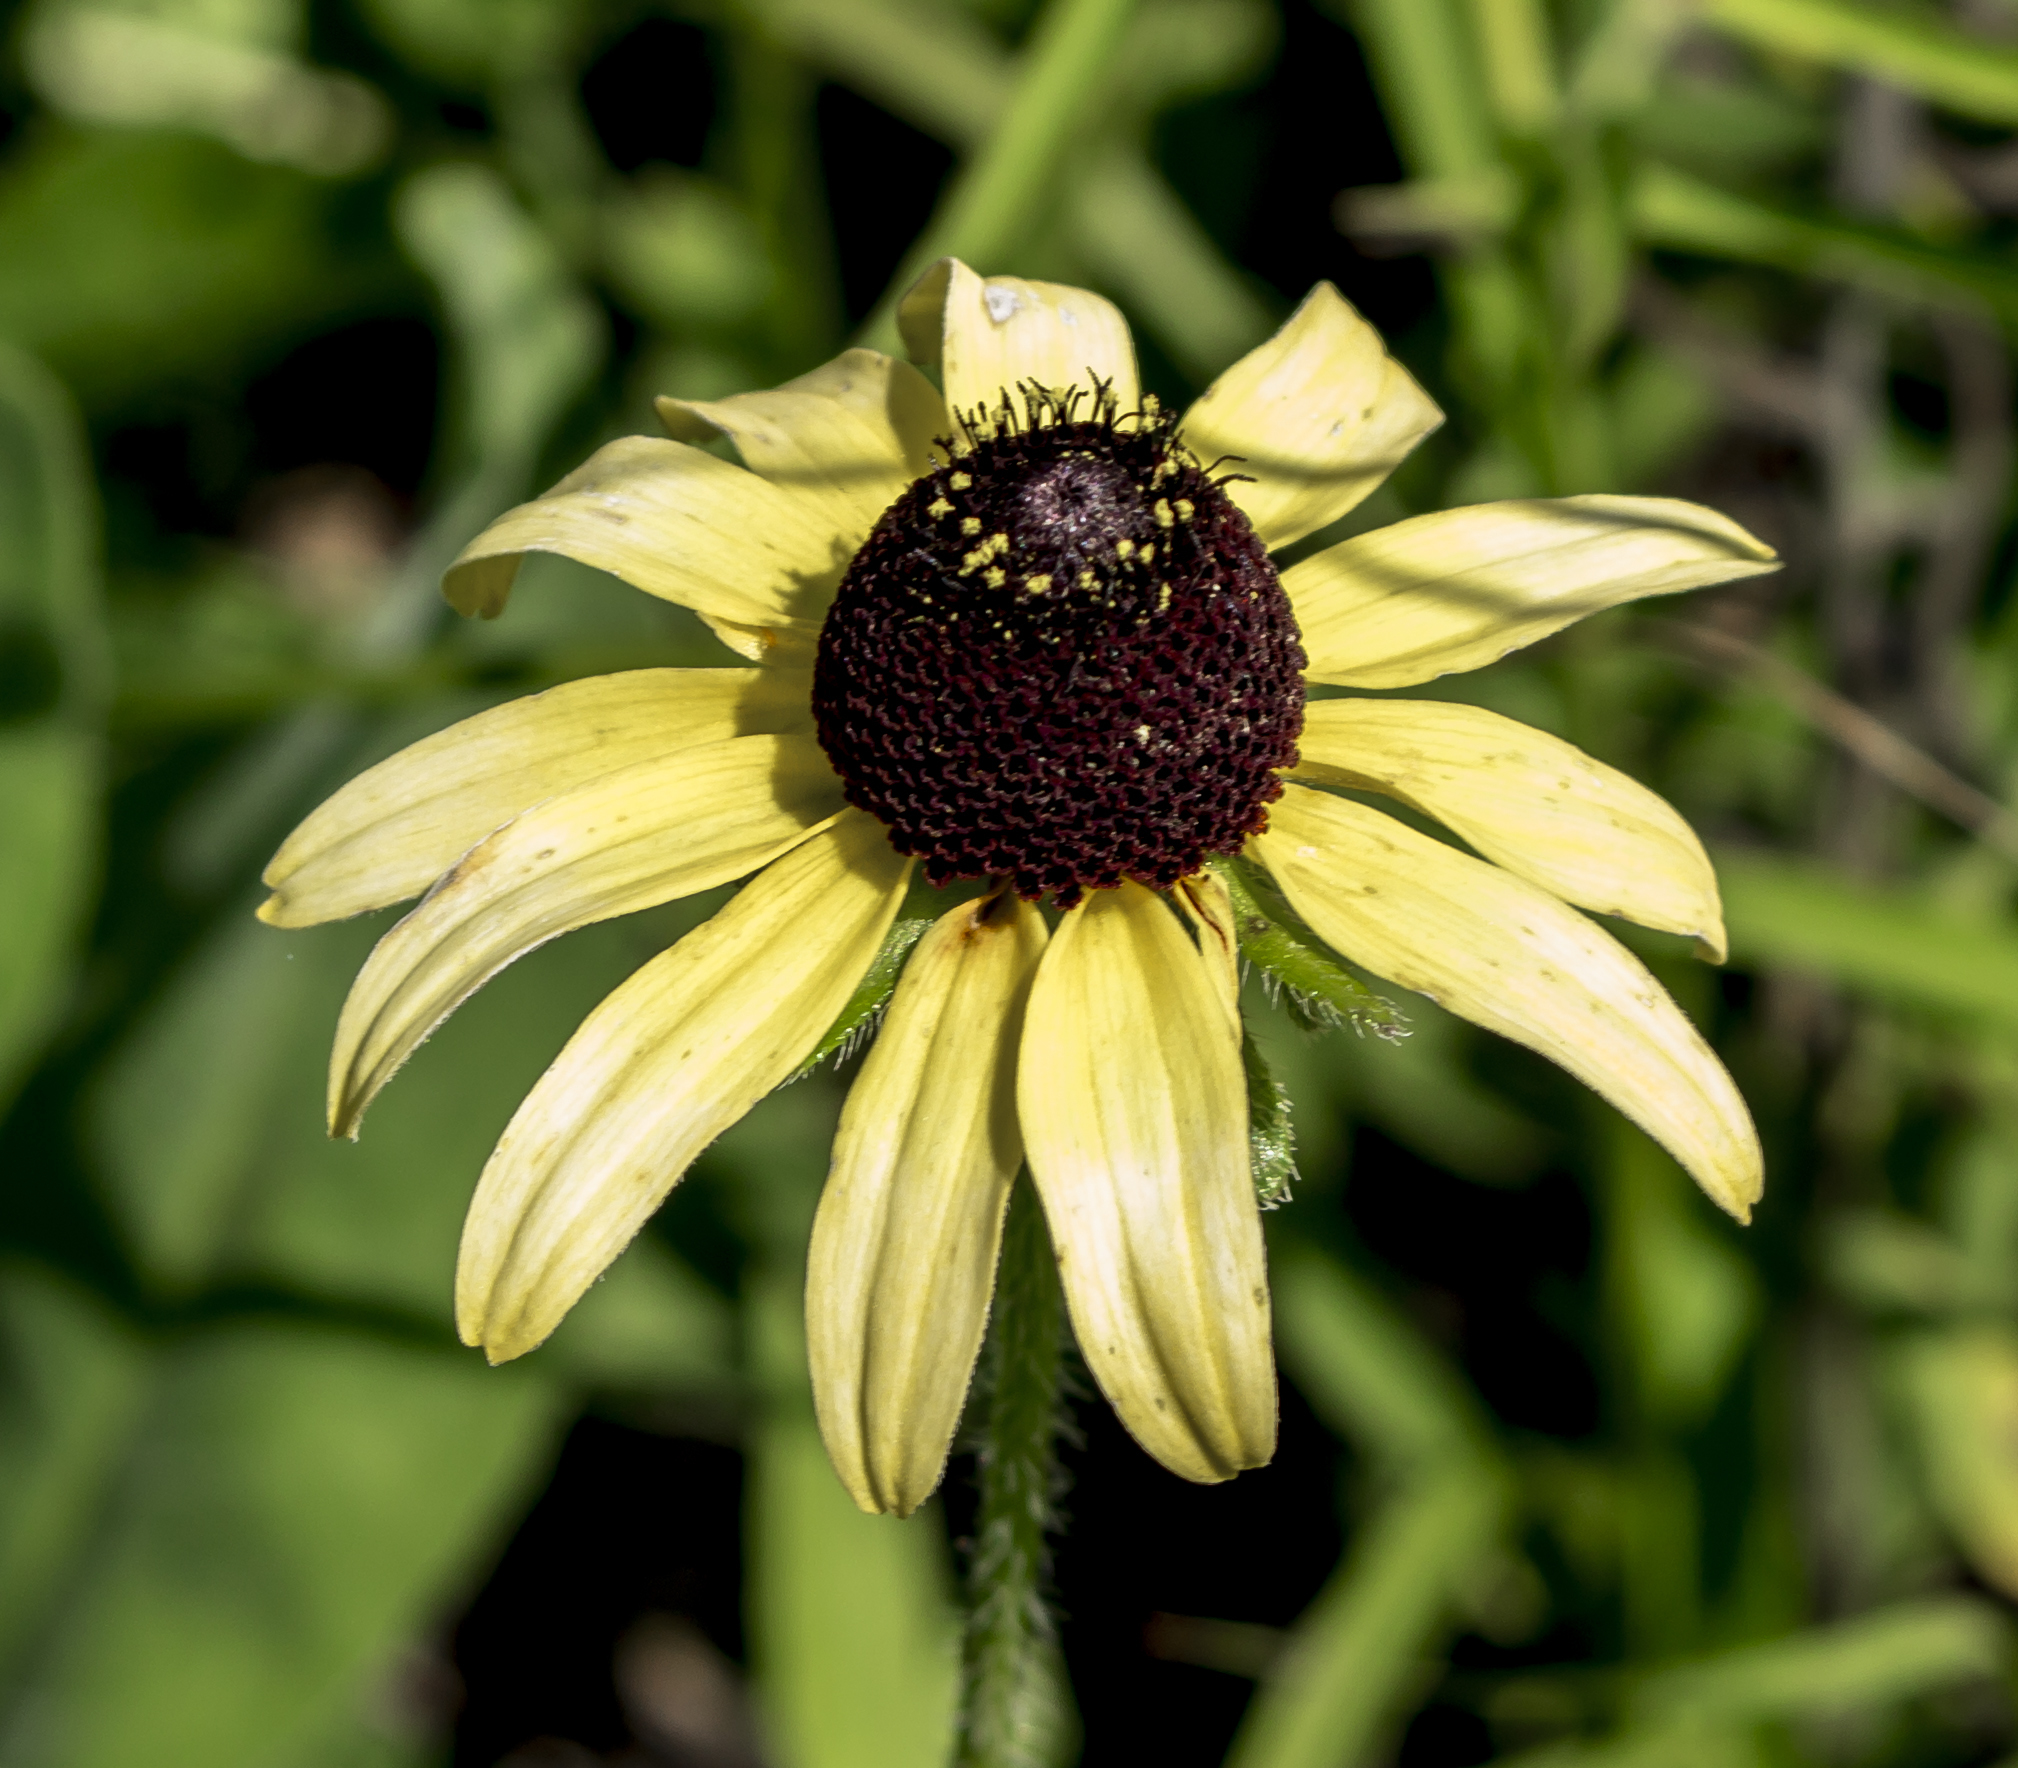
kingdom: Plantae
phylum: Tracheophyta
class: Magnoliopsida
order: Asterales
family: Asteraceae
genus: Rudbeckia
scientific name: Rudbeckia hirta
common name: Black-eyed-susan
